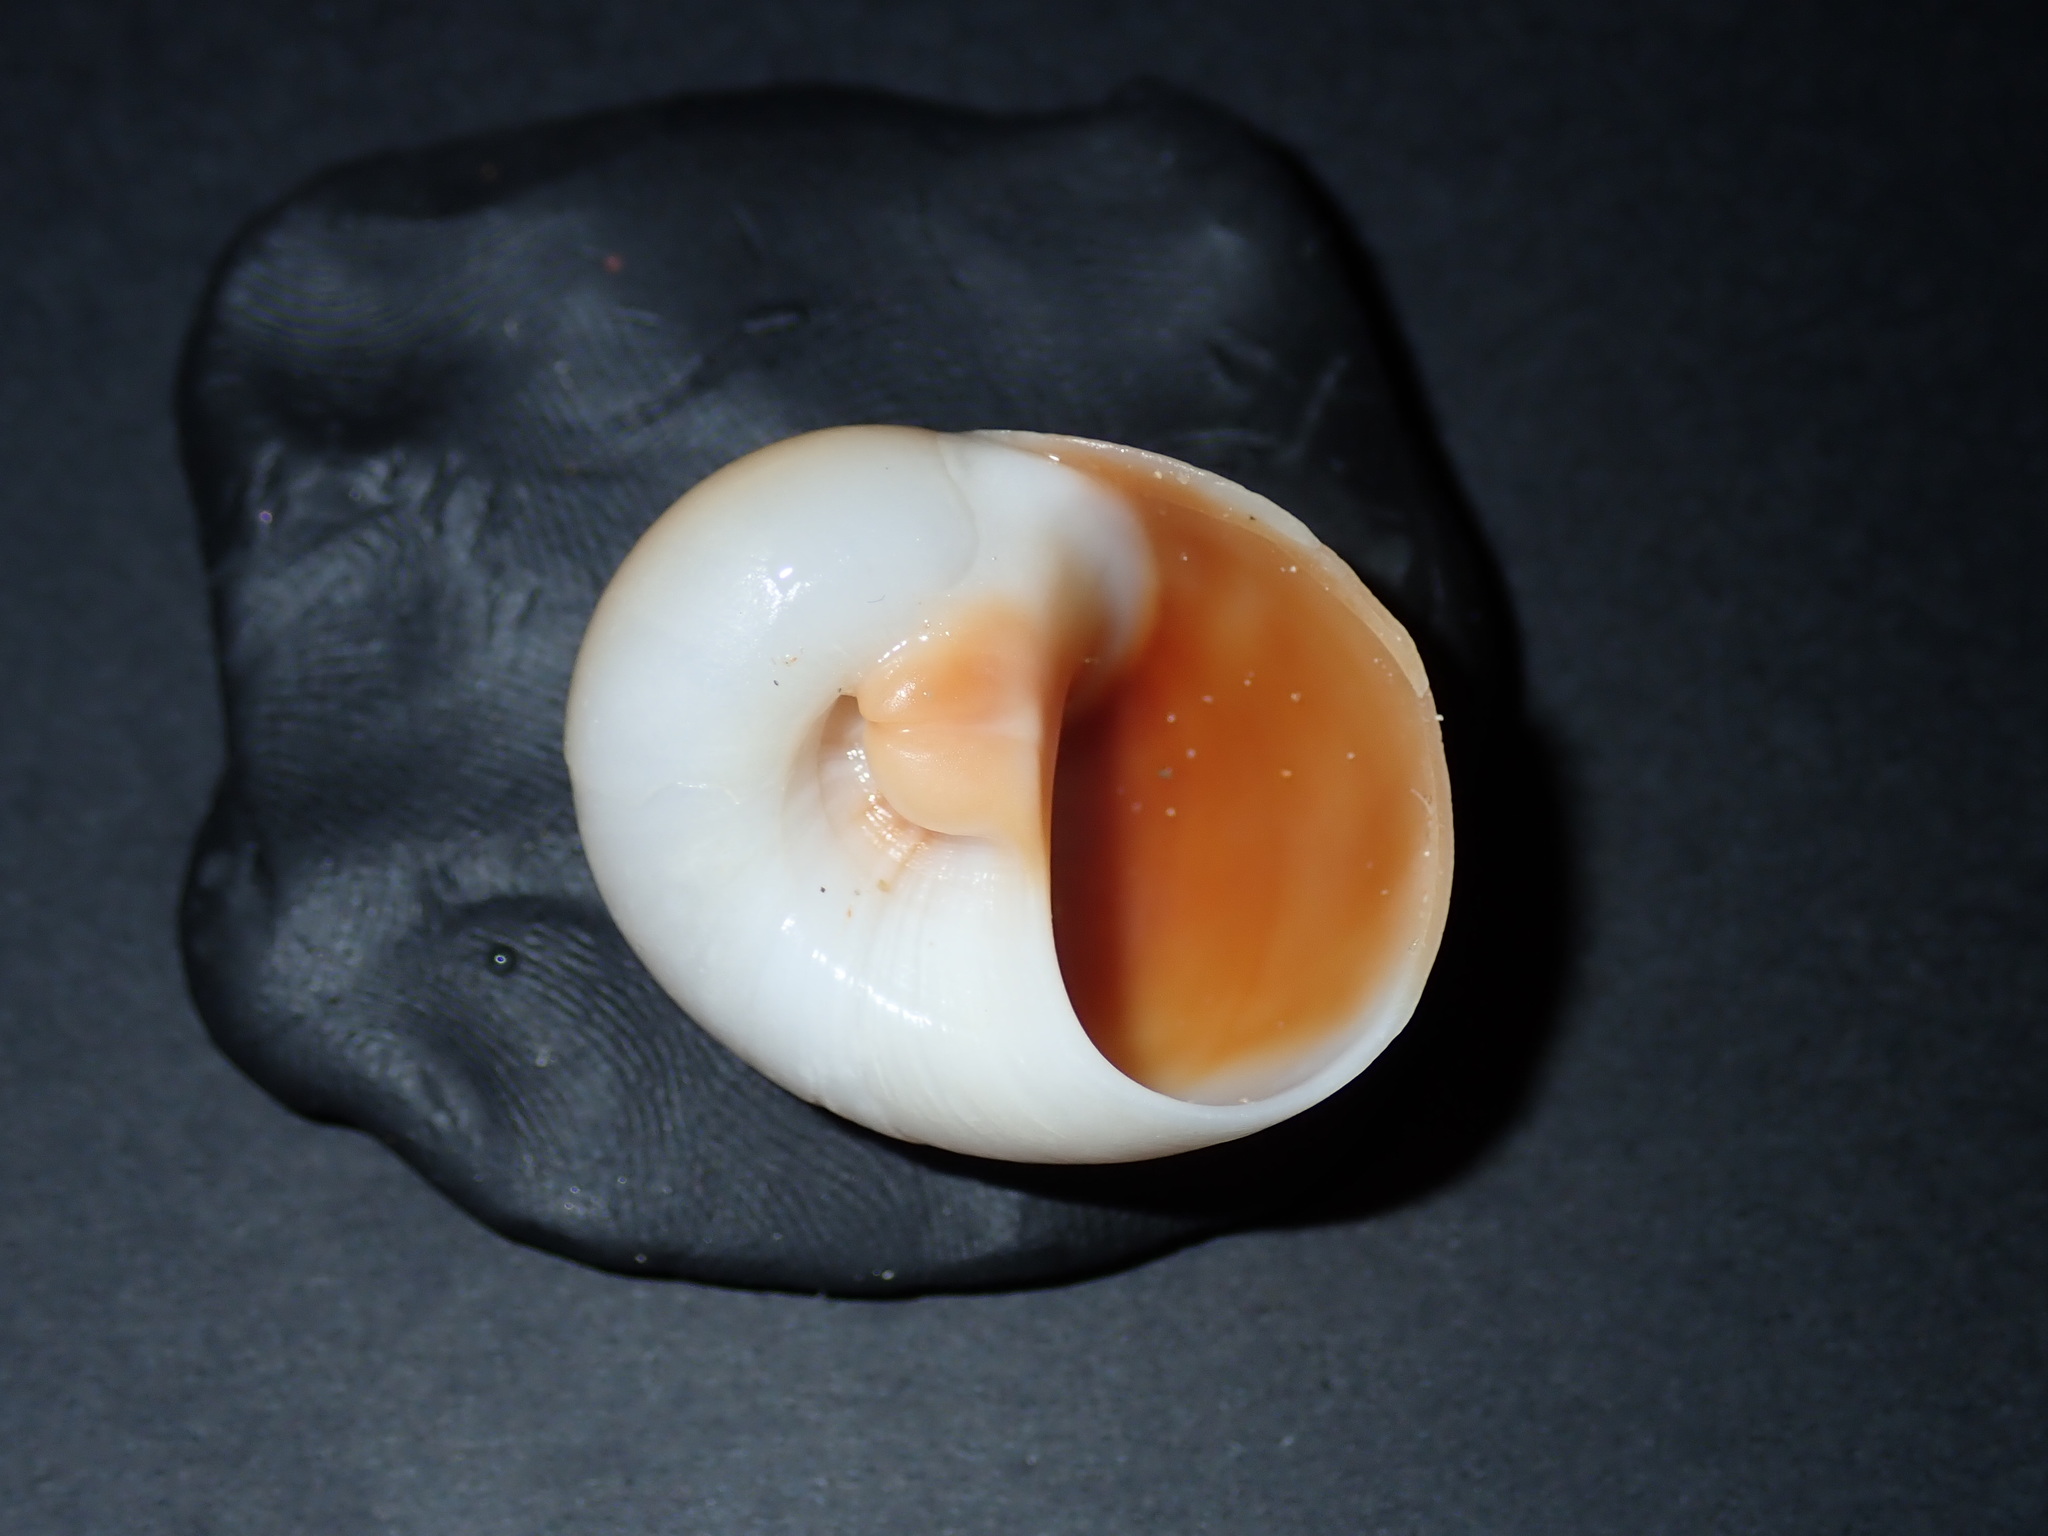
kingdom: Animalia
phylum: Mollusca
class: Gastropoda
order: Littorinimorpha
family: Naticidae
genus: Neverita
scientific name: Neverita didyma
